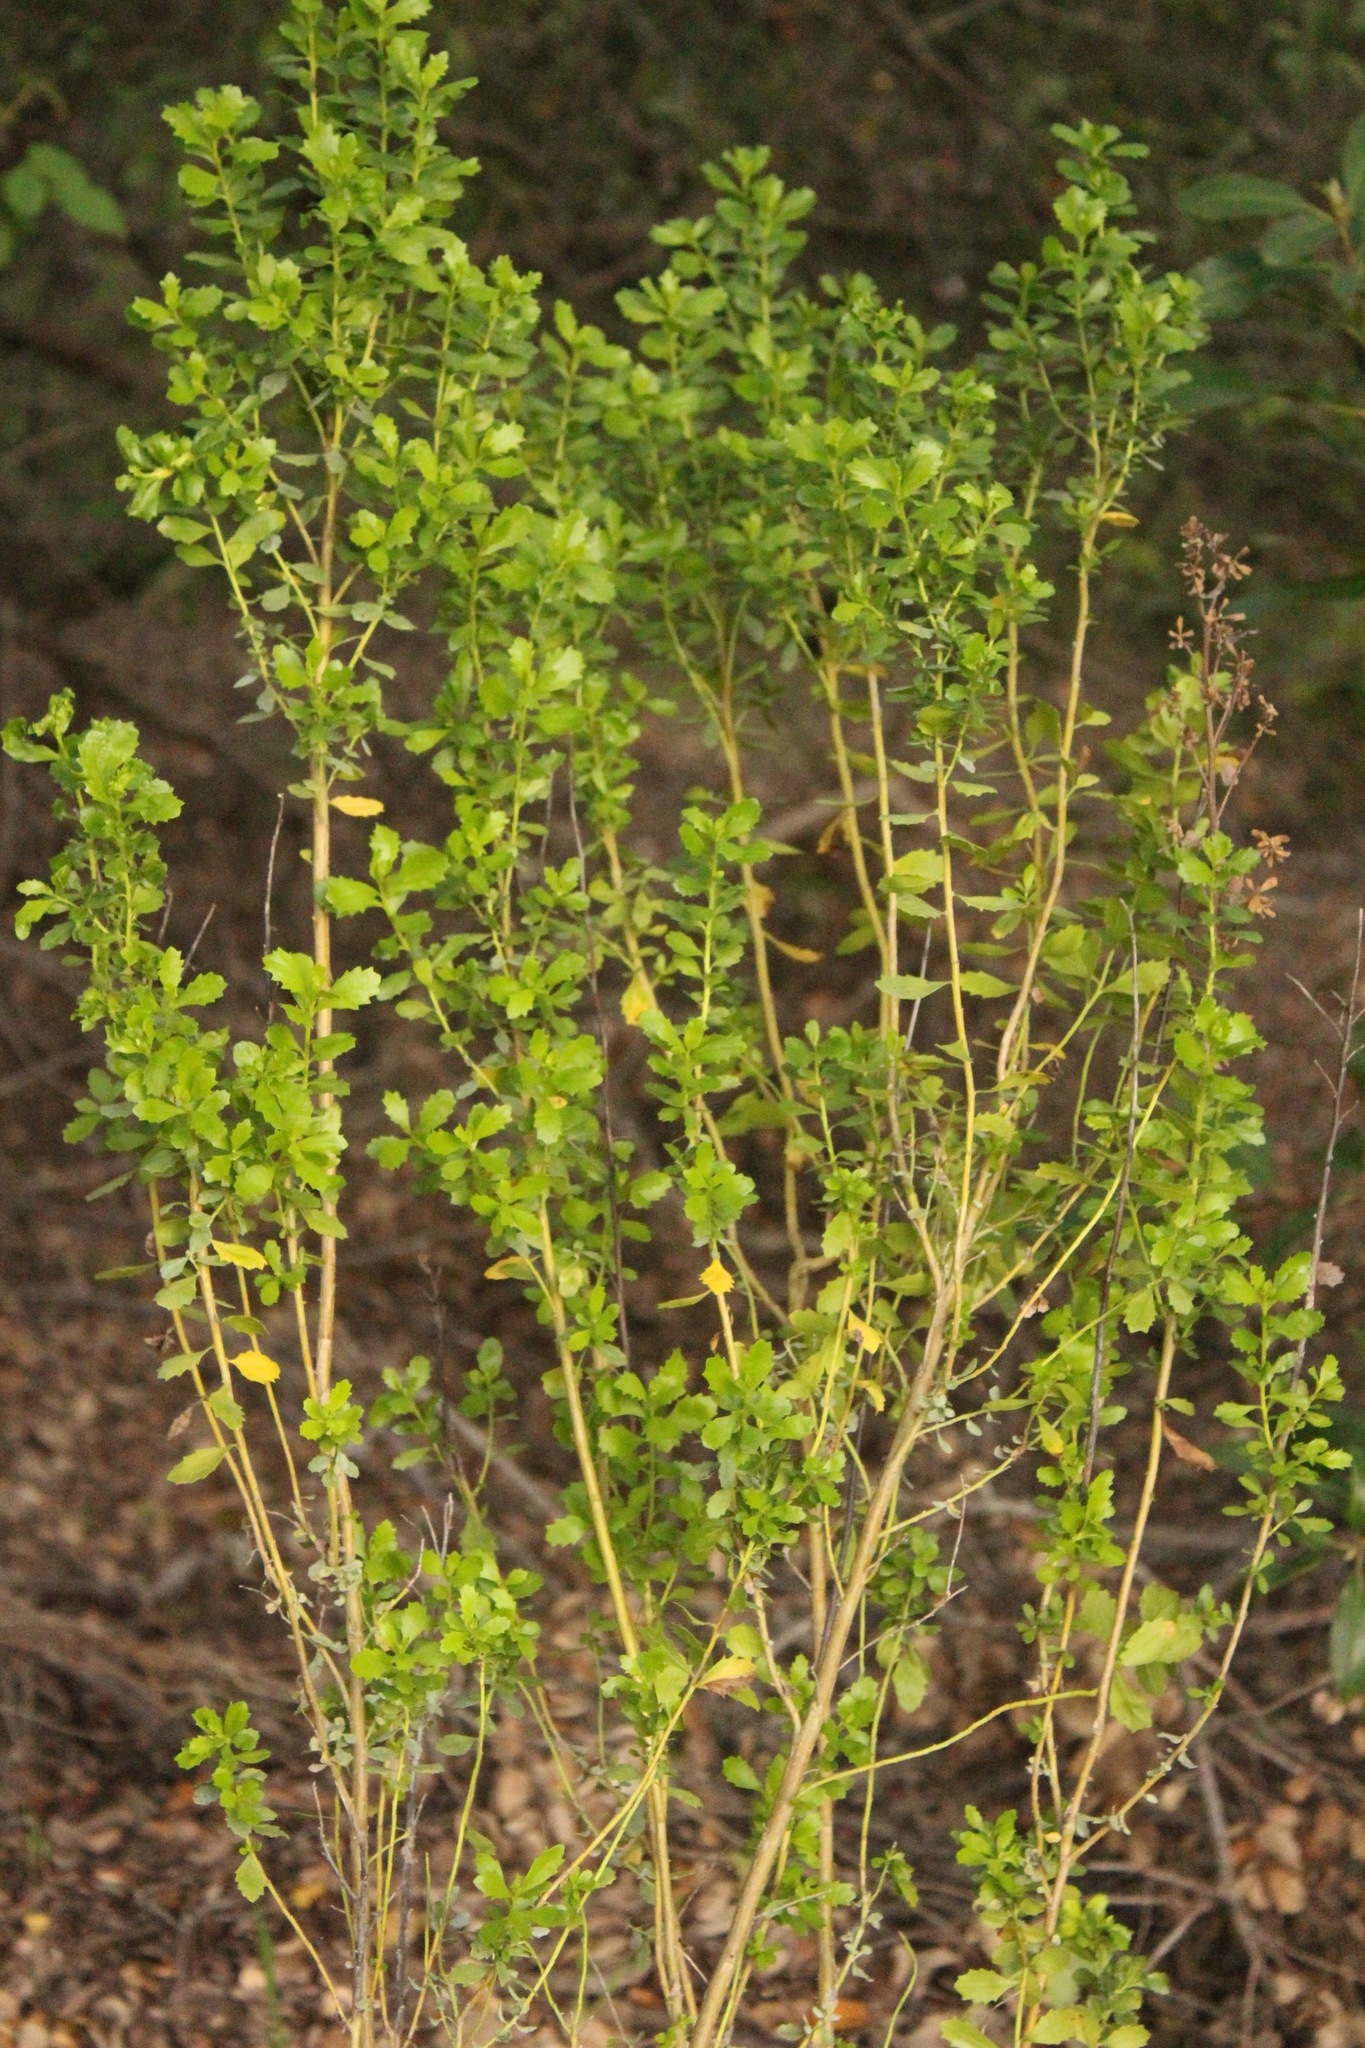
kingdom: Plantae
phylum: Tracheophyta
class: Magnoliopsida
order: Asterales
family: Asteraceae
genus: Baccharis
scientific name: Baccharis pilularis
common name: Coyotebrush
